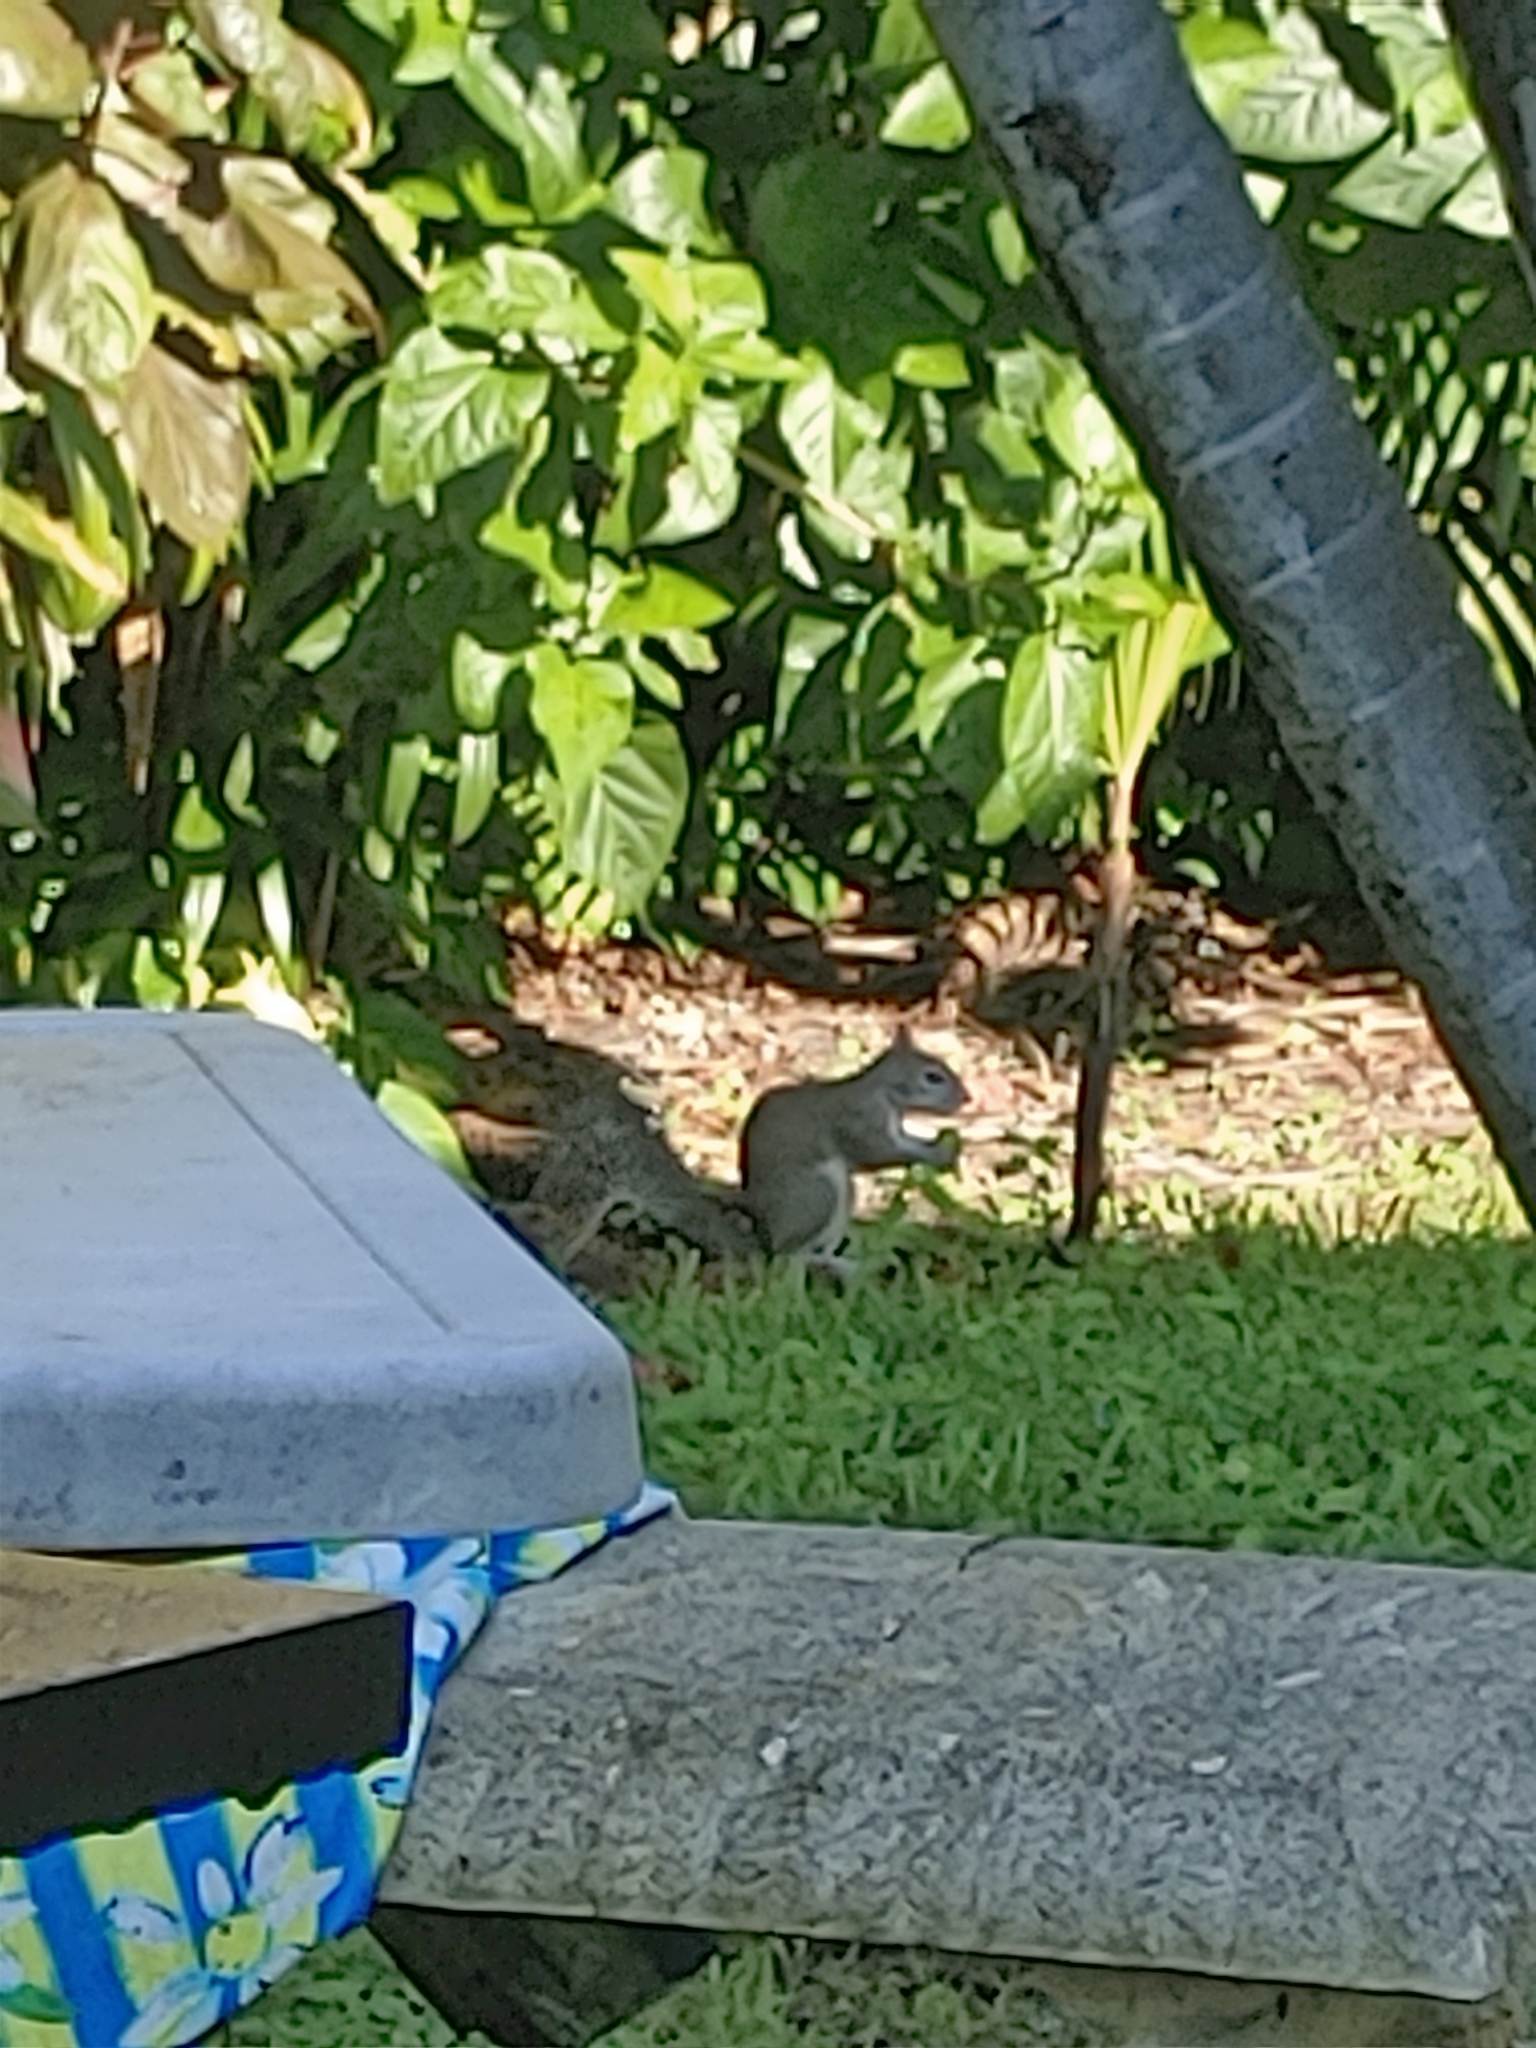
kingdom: Animalia
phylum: Chordata
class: Mammalia
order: Rodentia
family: Sciuridae
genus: Sciurus
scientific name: Sciurus carolinensis
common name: Eastern gray squirrel
